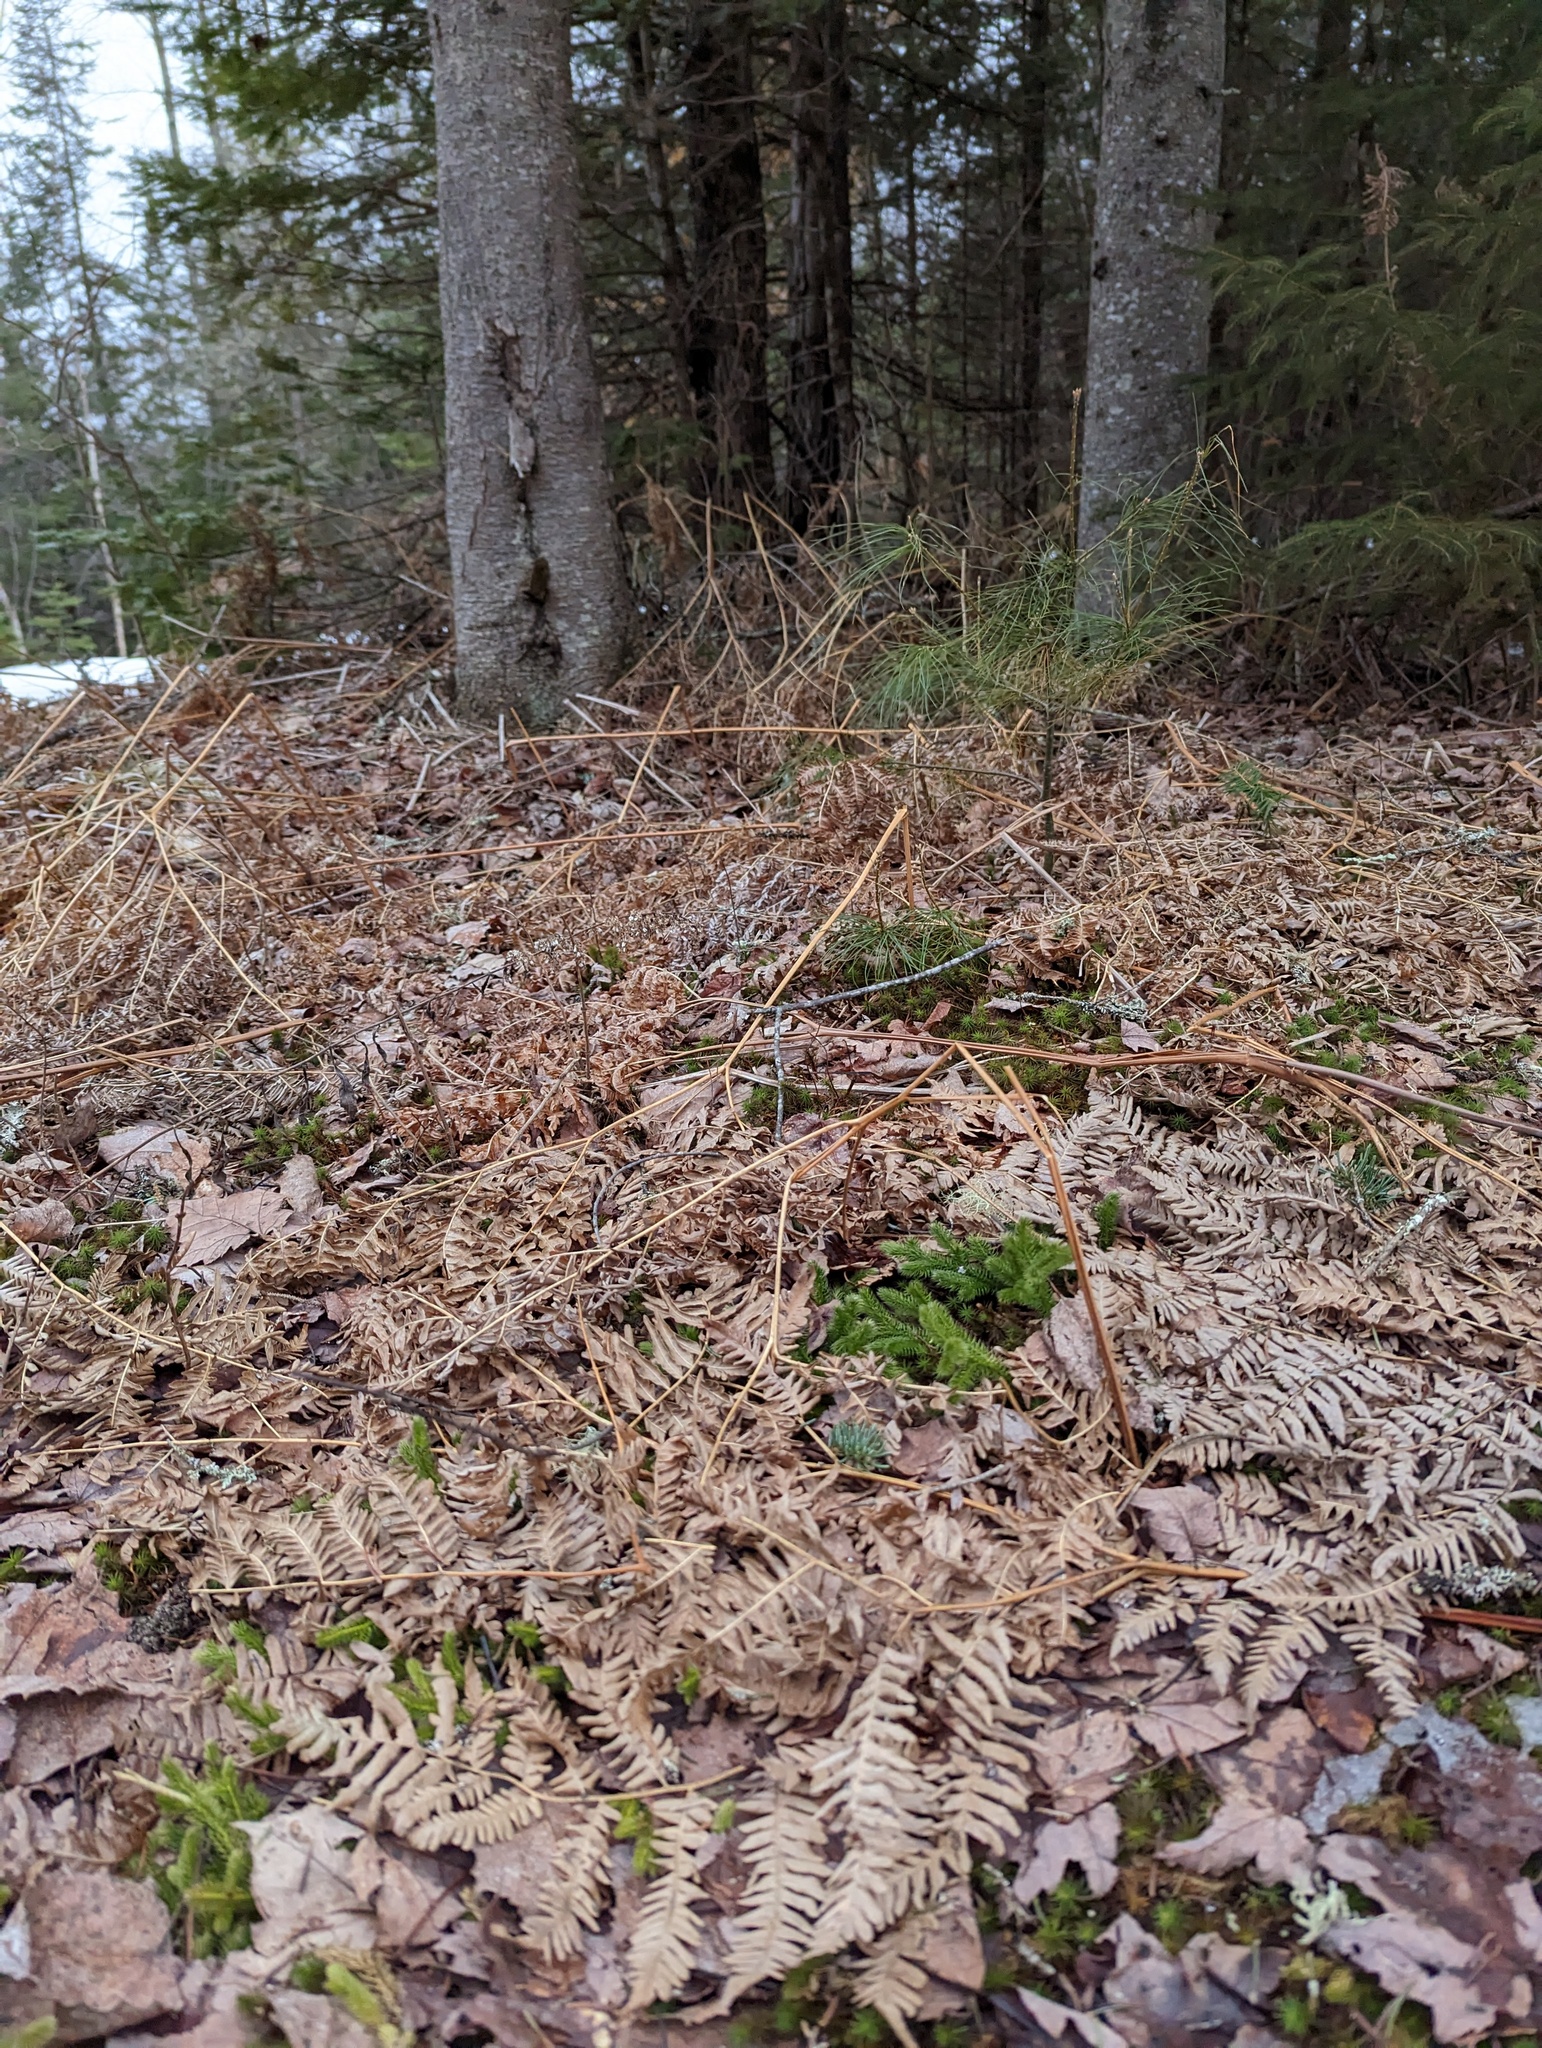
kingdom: Plantae
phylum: Tracheophyta
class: Polypodiopsida
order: Polypodiales
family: Dennstaedtiaceae
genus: Pteridium
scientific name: Pteridium aquilinum
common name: Bracken
